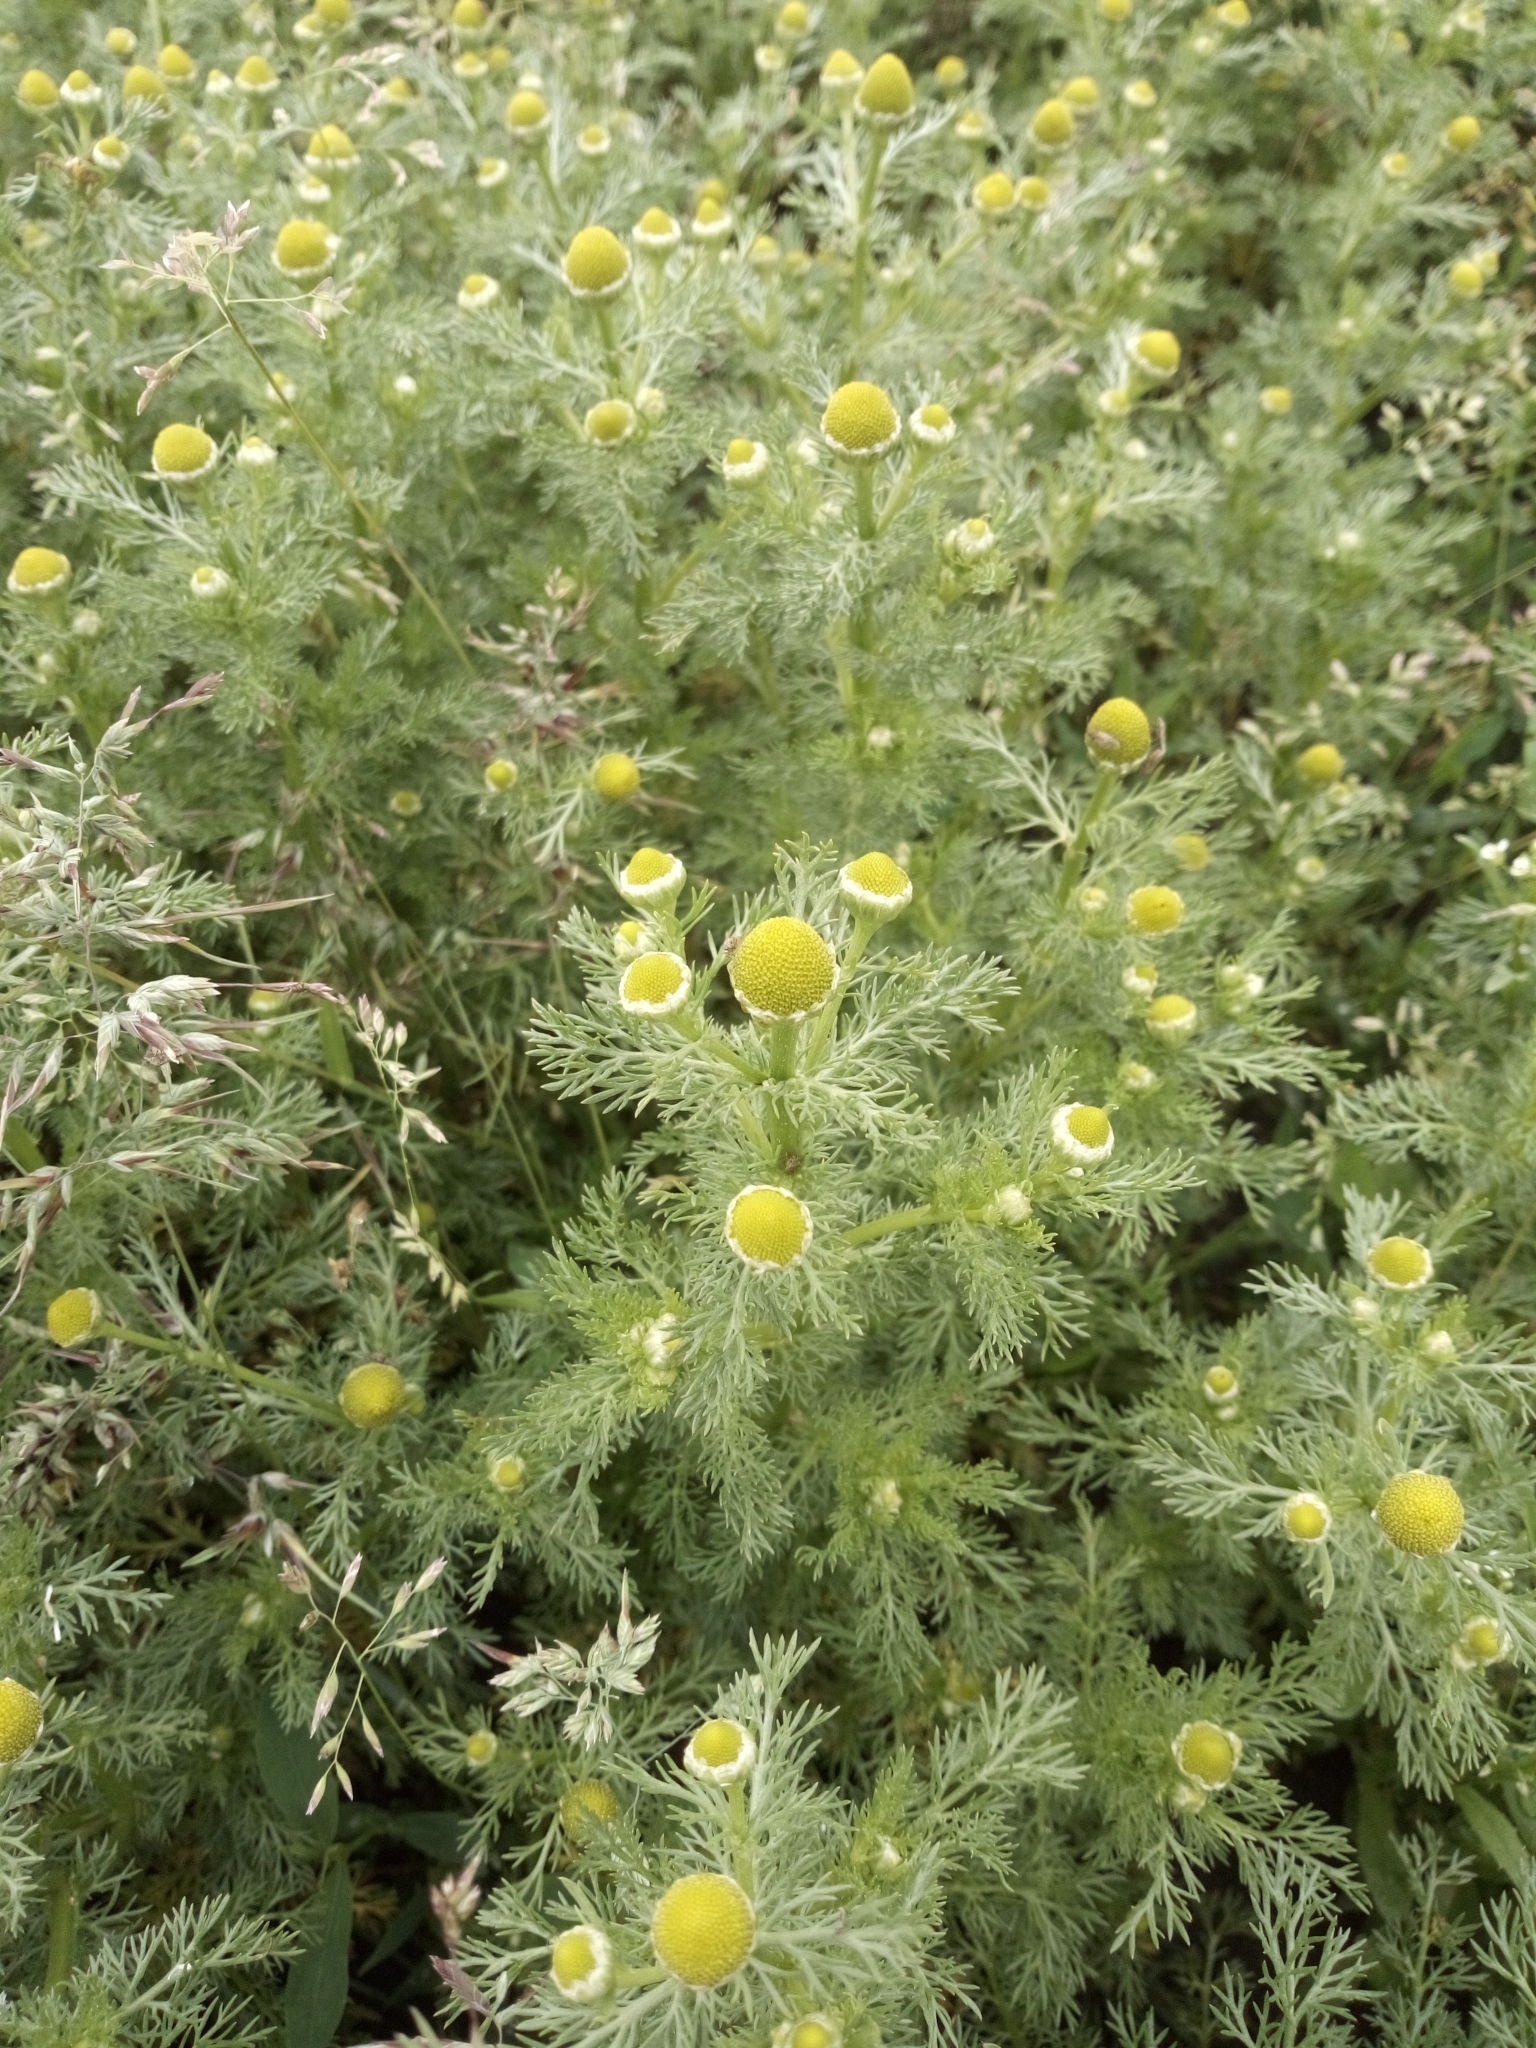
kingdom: Plantae
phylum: Tracheophyta
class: Magnoliopsida
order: Asterales
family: Asteraceae
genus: Matricaria
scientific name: Matricaria discoidea
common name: Disc mayweed
